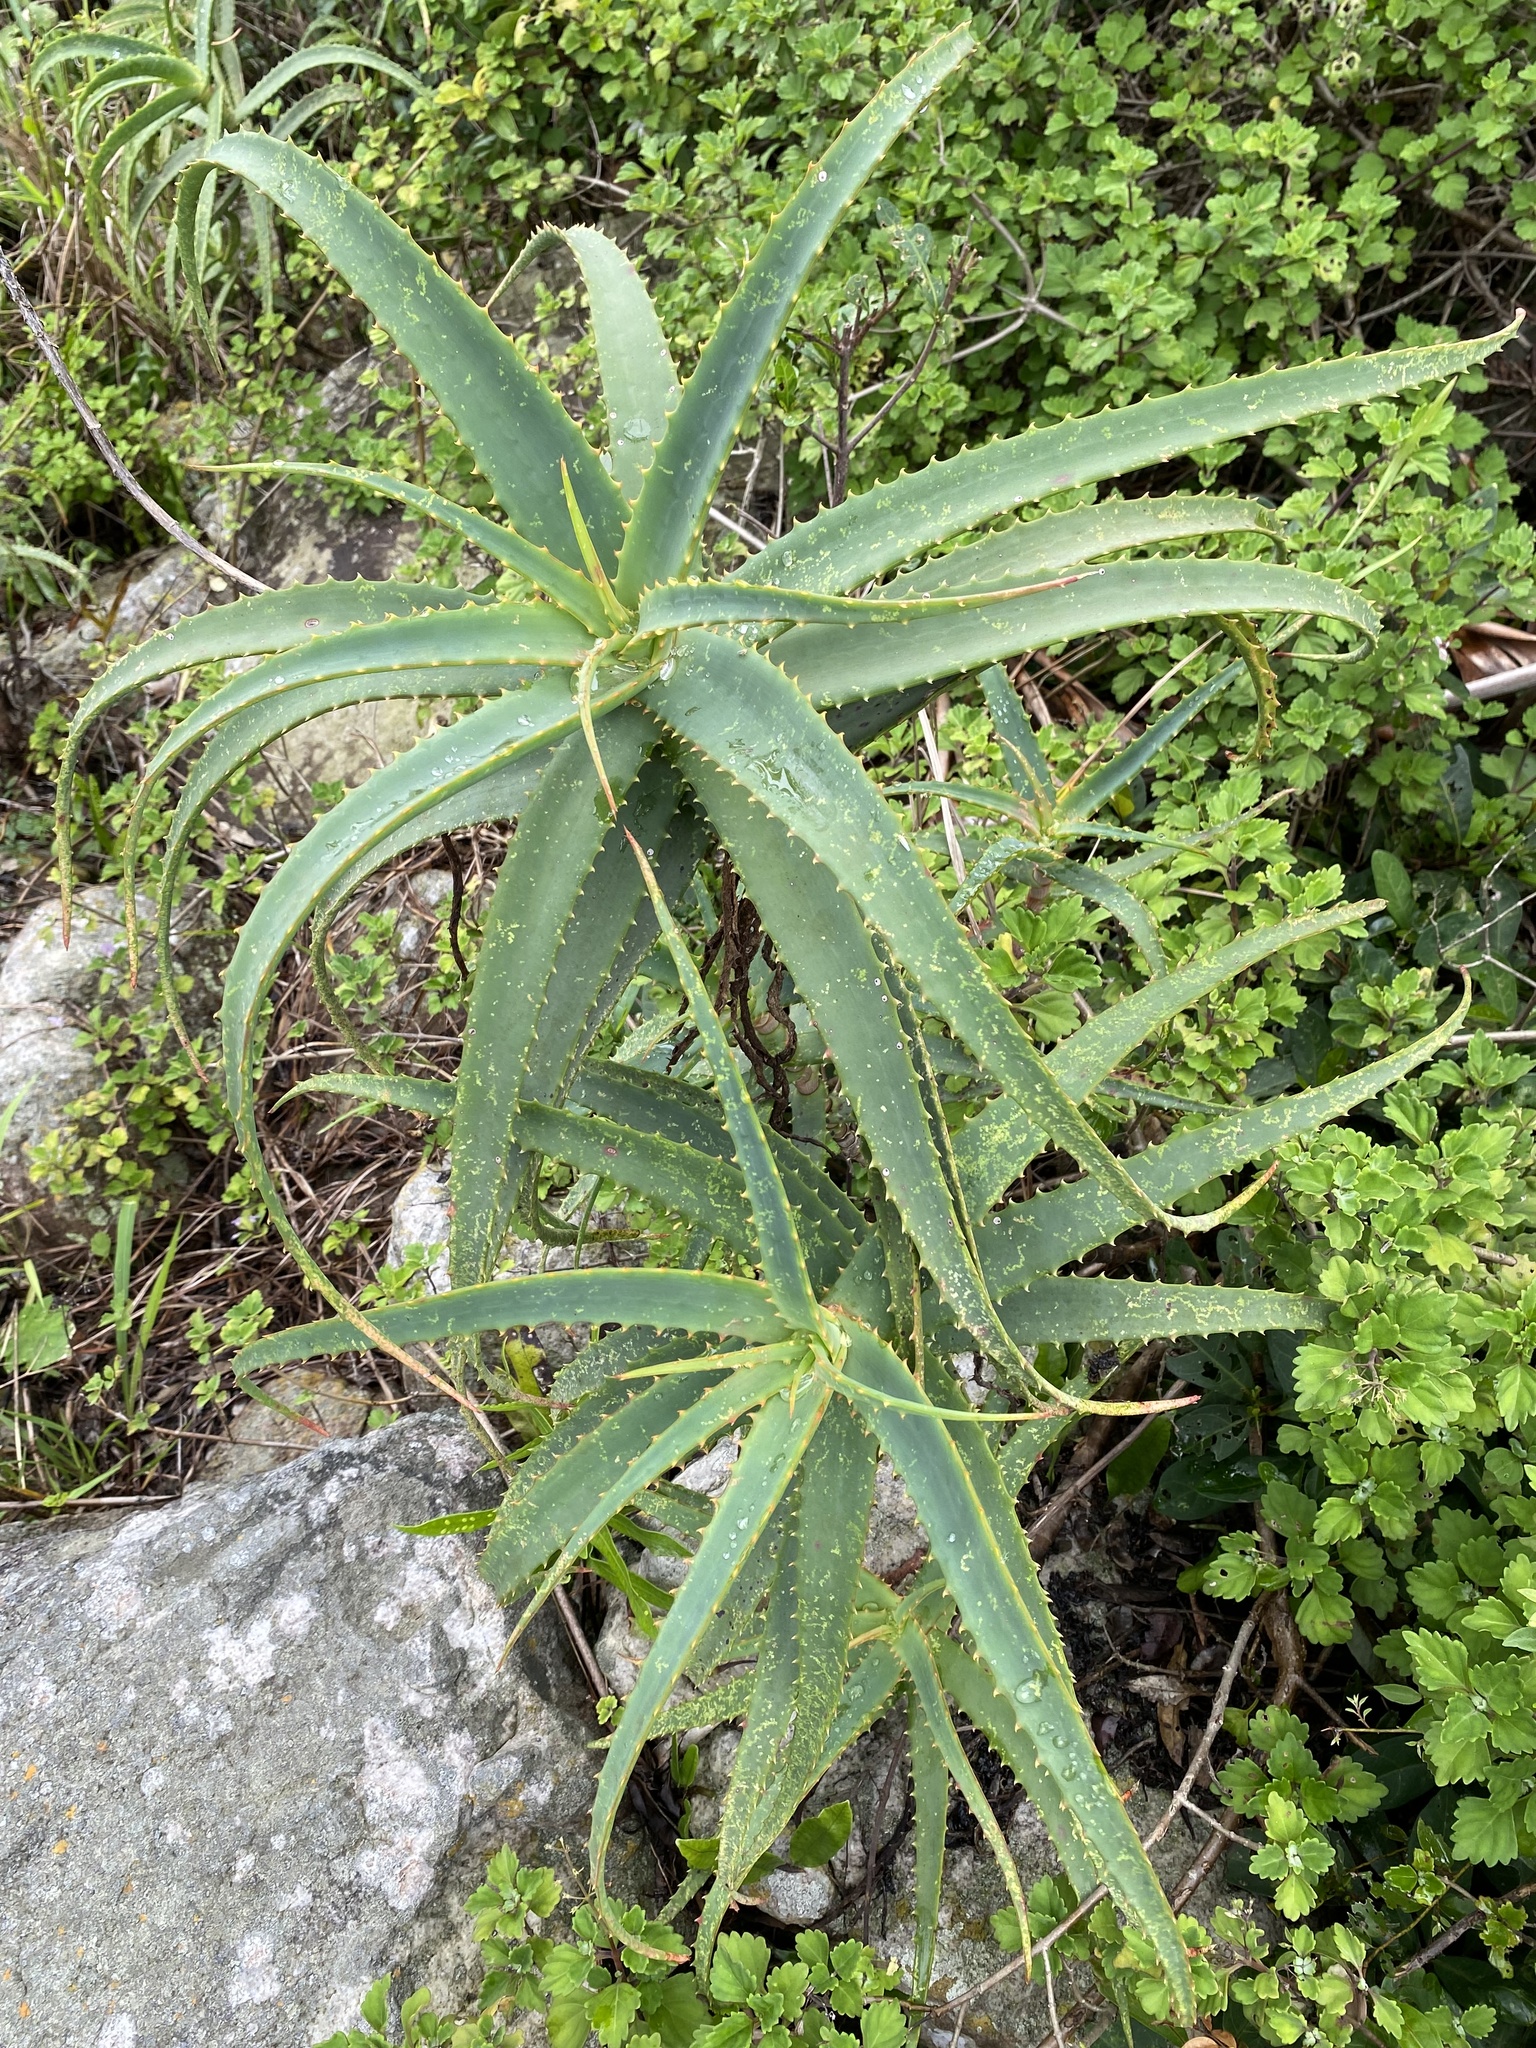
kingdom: Plantae
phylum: Tracheophyta
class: Liliopsida
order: Asparagales
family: Asphodelaceae
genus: Aloe
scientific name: Aloe arborescens
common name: Candelabra aloe
